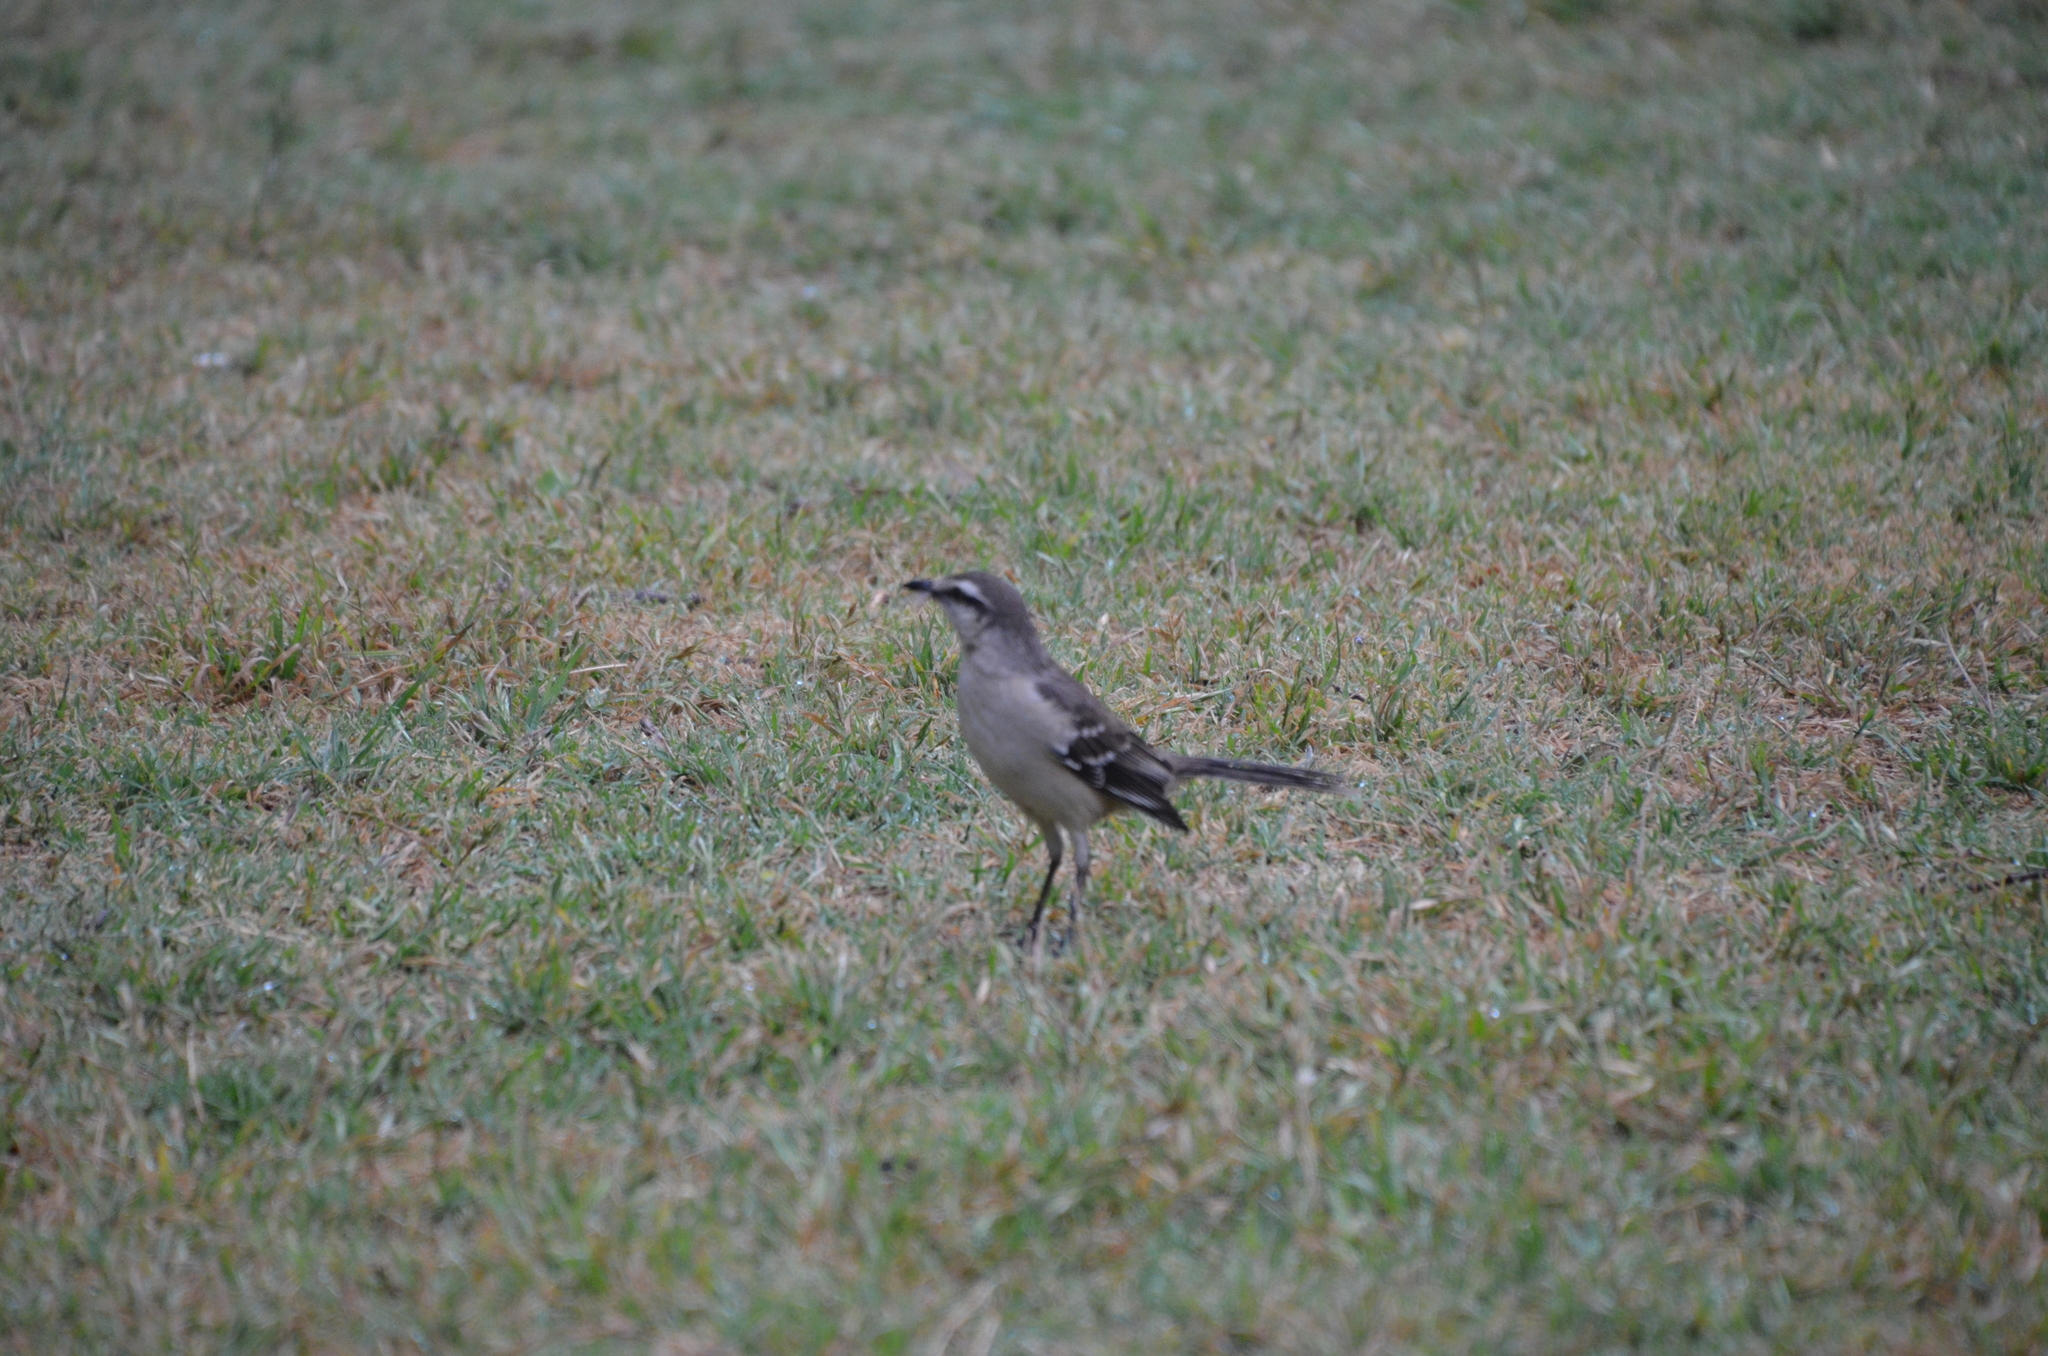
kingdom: Animalia
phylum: Chordata
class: Aves
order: Passeriformes
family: Mimidae
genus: Mimus
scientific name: Mimus saturninus
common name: Chalk-browed mockingbird
